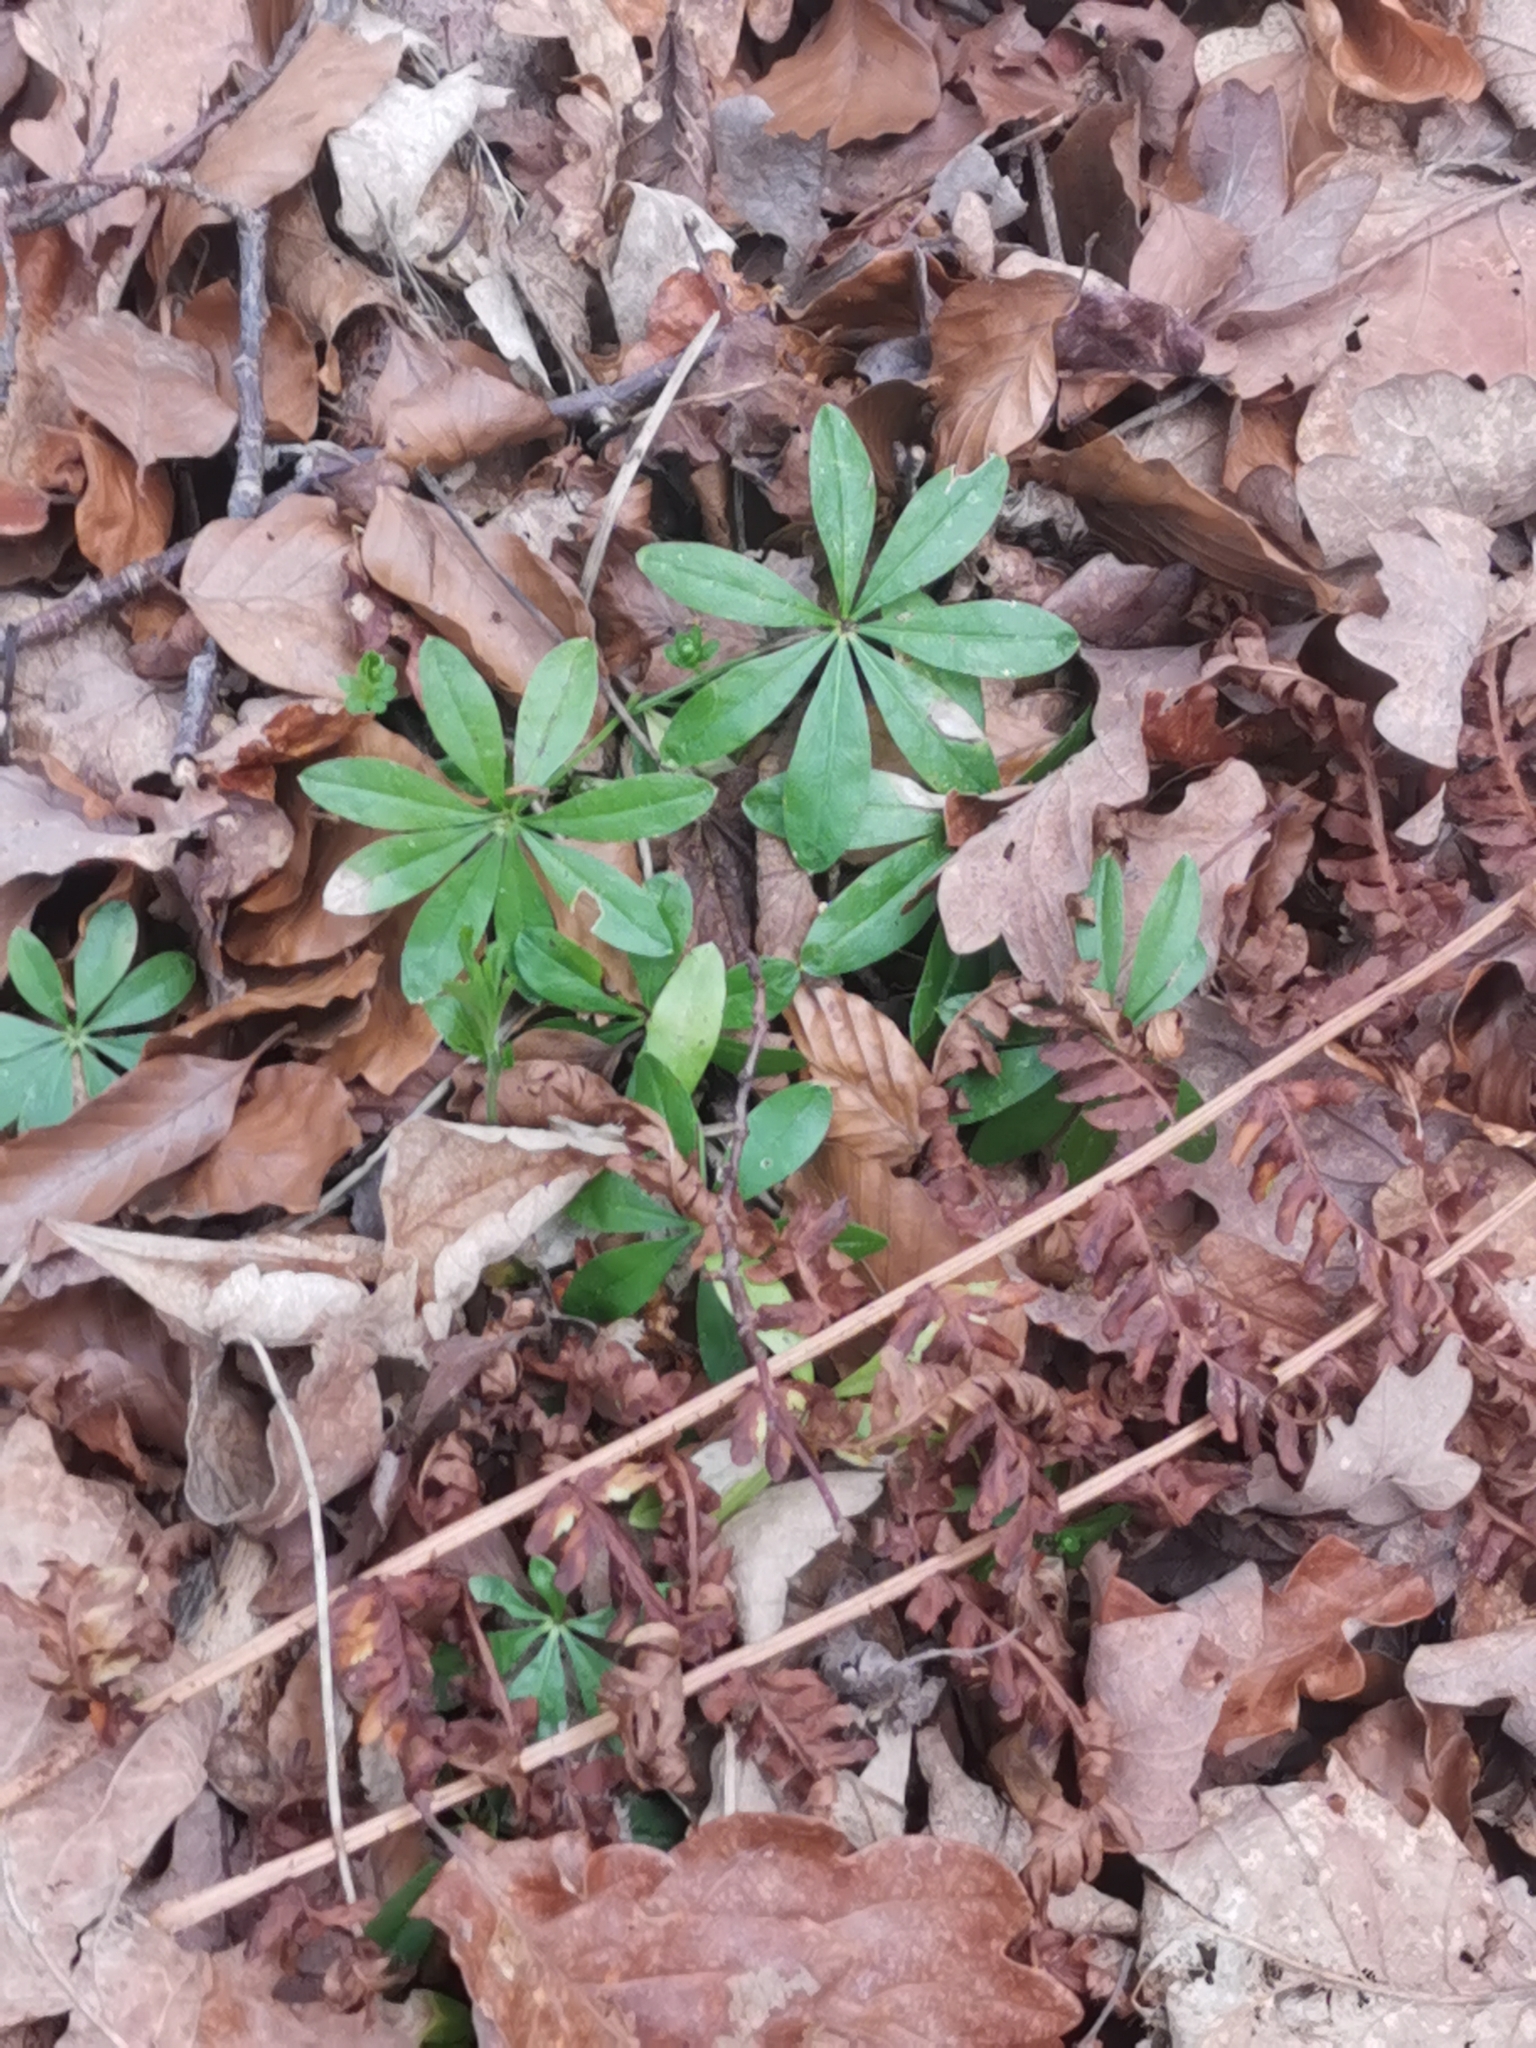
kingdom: Plantae
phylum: Tracheophyta
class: Magnoliopsida
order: Gentianales
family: Rubiaceae
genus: Galium
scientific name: Galium odoratum
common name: Sweet woodruff
